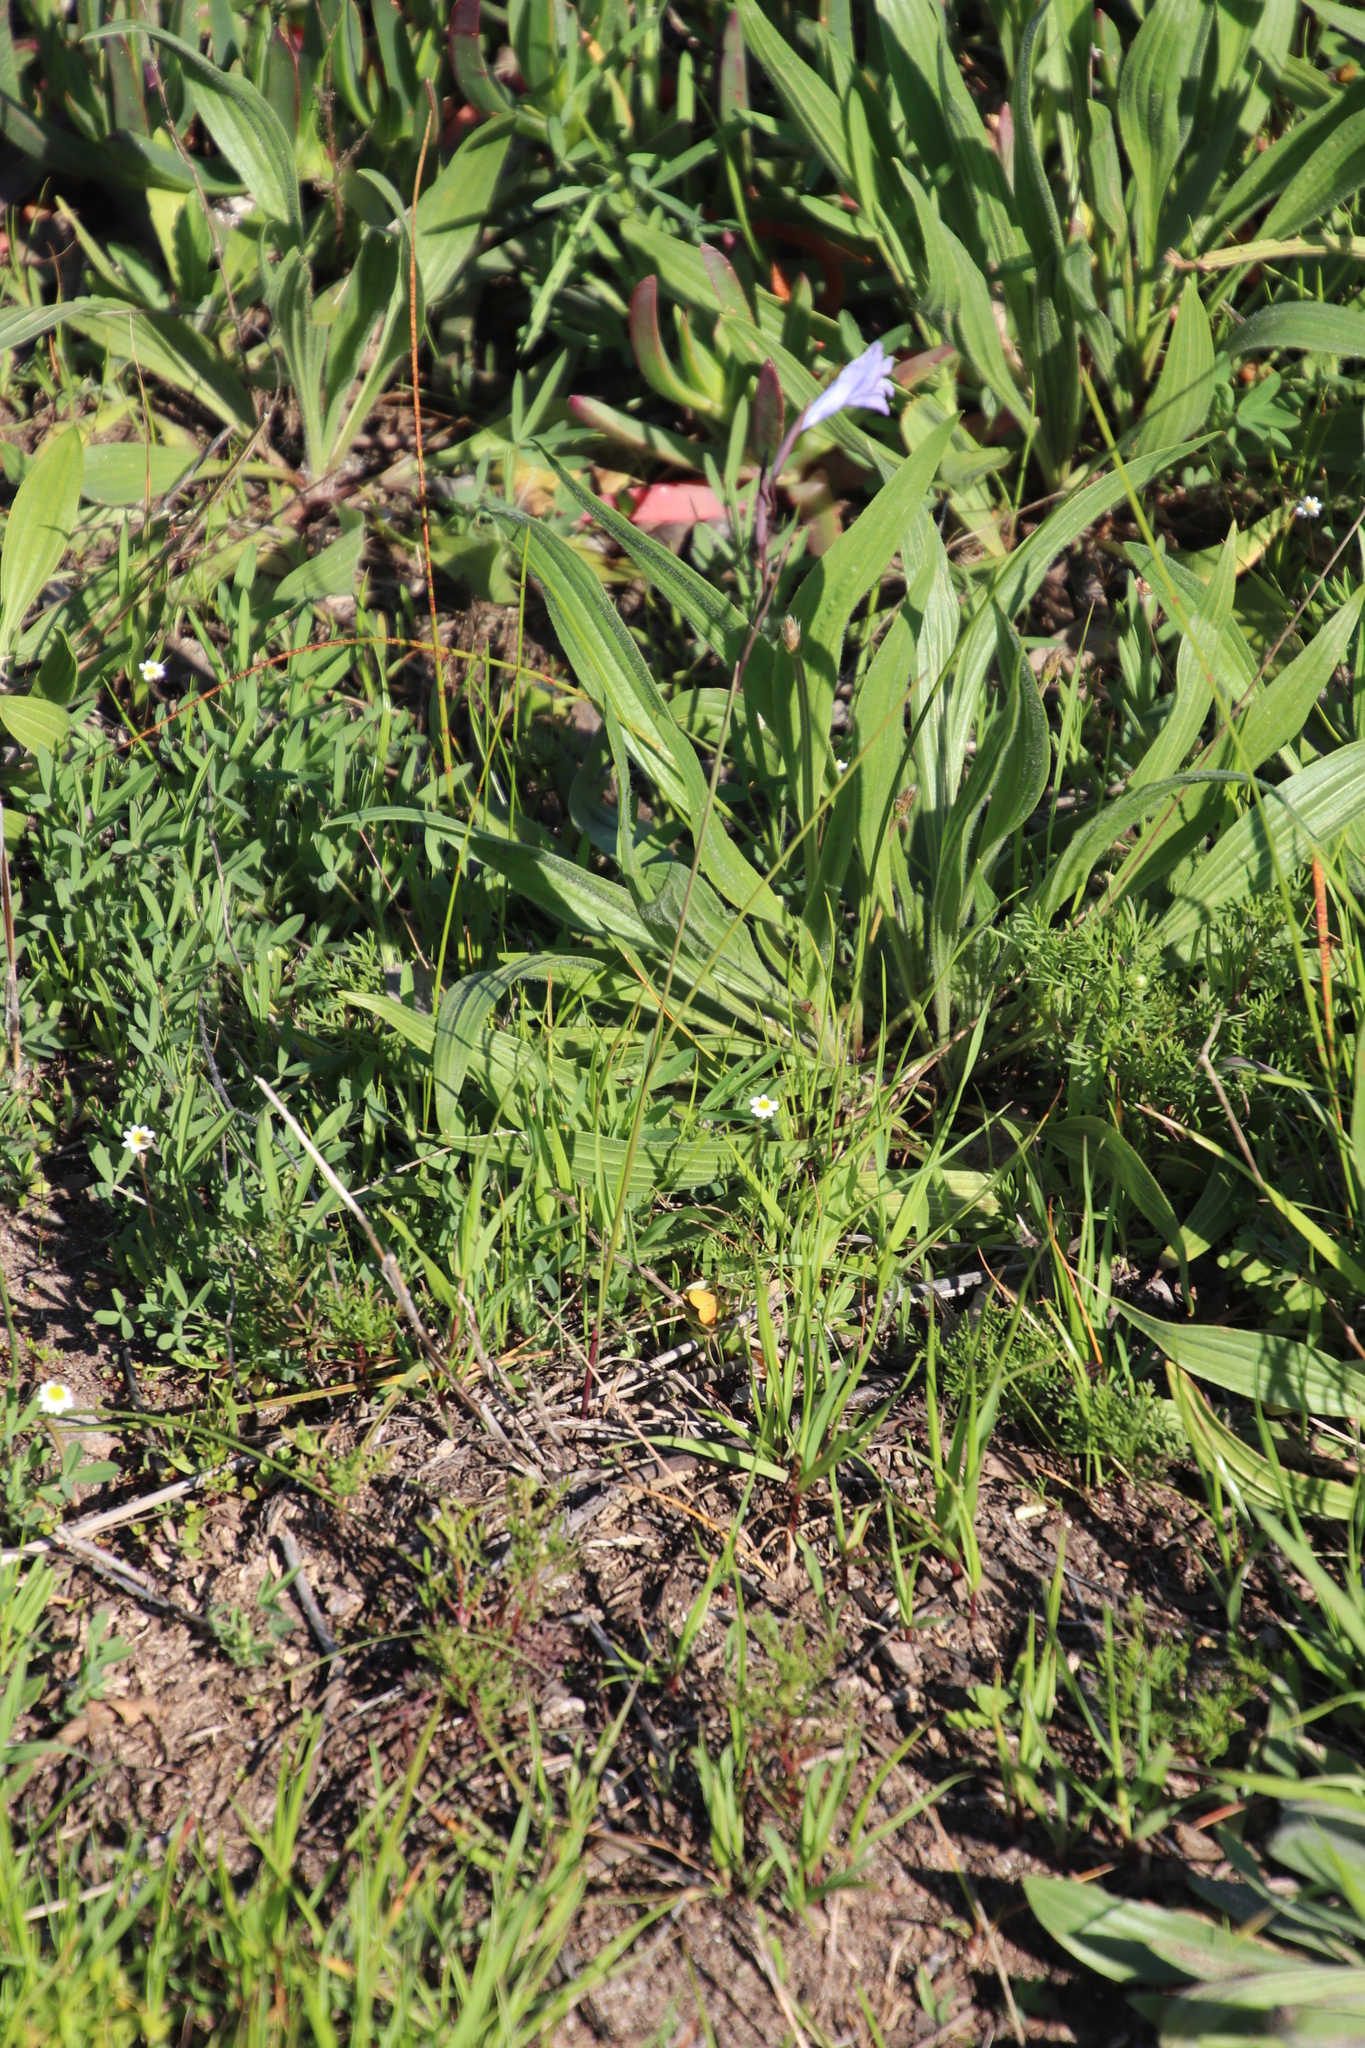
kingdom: Plantae
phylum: Tracheophyta
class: Liliopsida
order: Asparagales
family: Iridaceae
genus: Gladiolus
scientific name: Gladiolus gracilis
